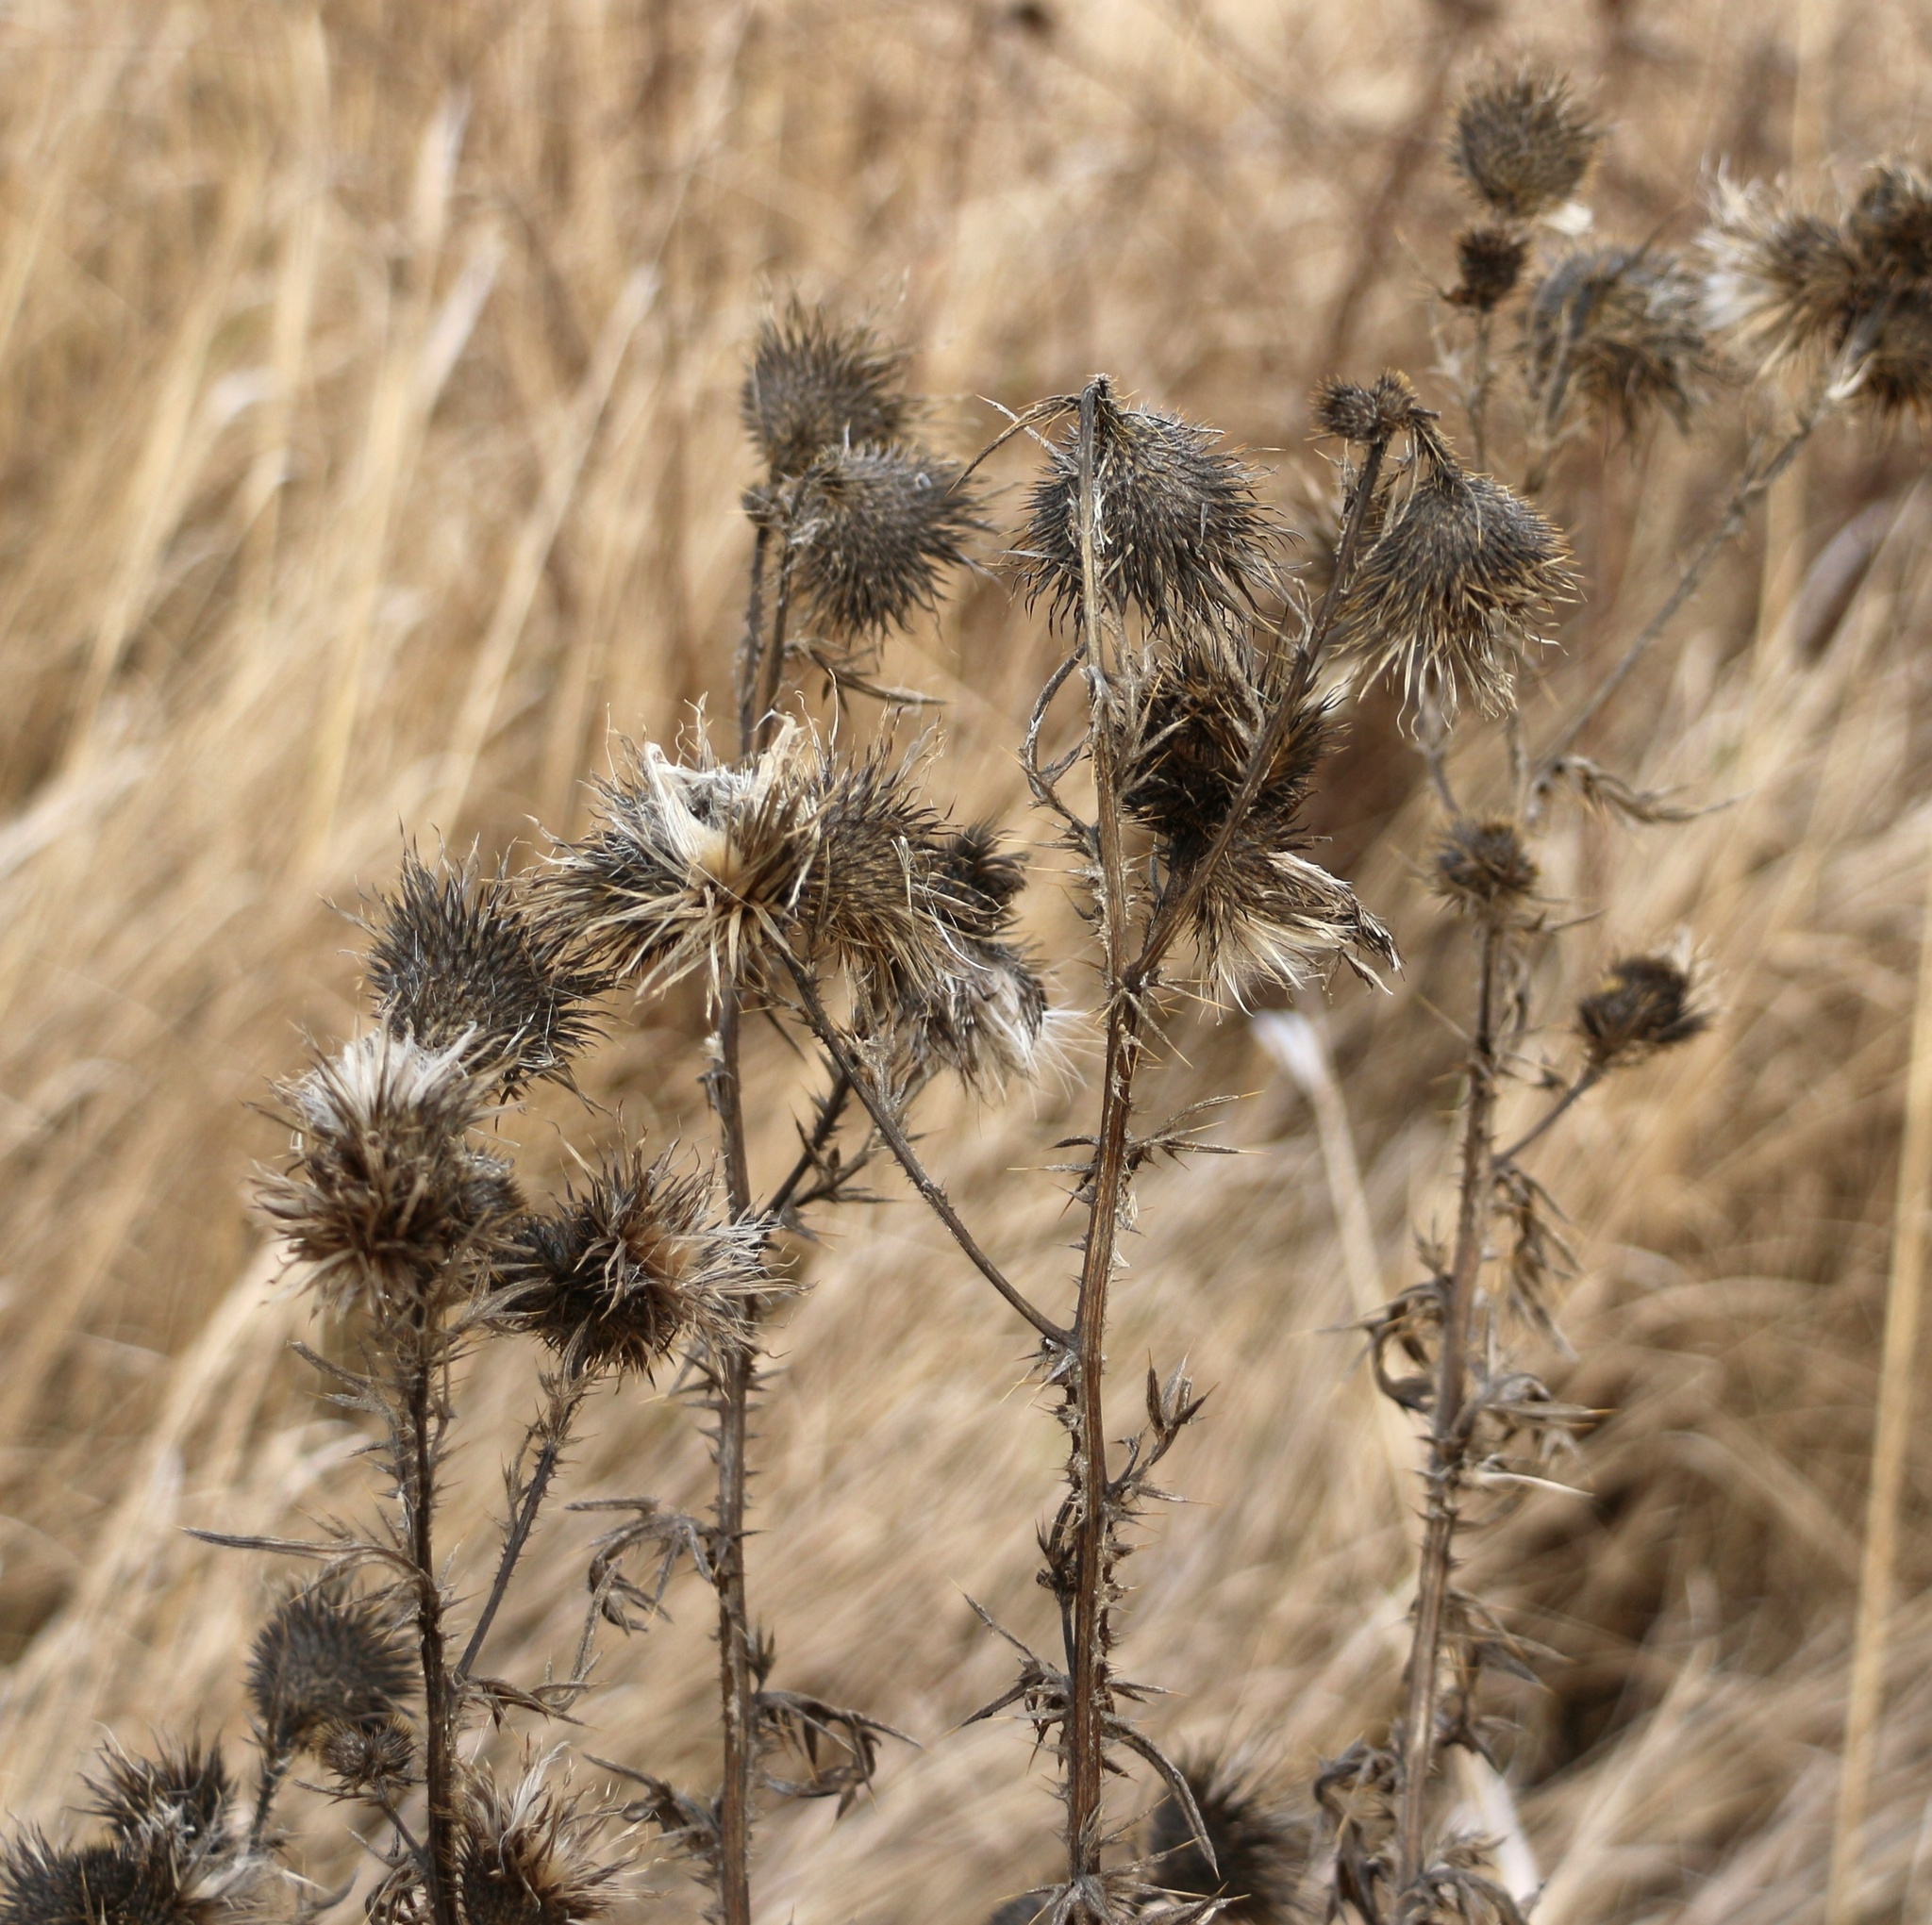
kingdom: Plantae
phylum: Tracheophyta
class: Magnoliopsida
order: Asterales
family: Asteraceae
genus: Cirsium
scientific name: Cirsium vulgare
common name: Bull thistle
